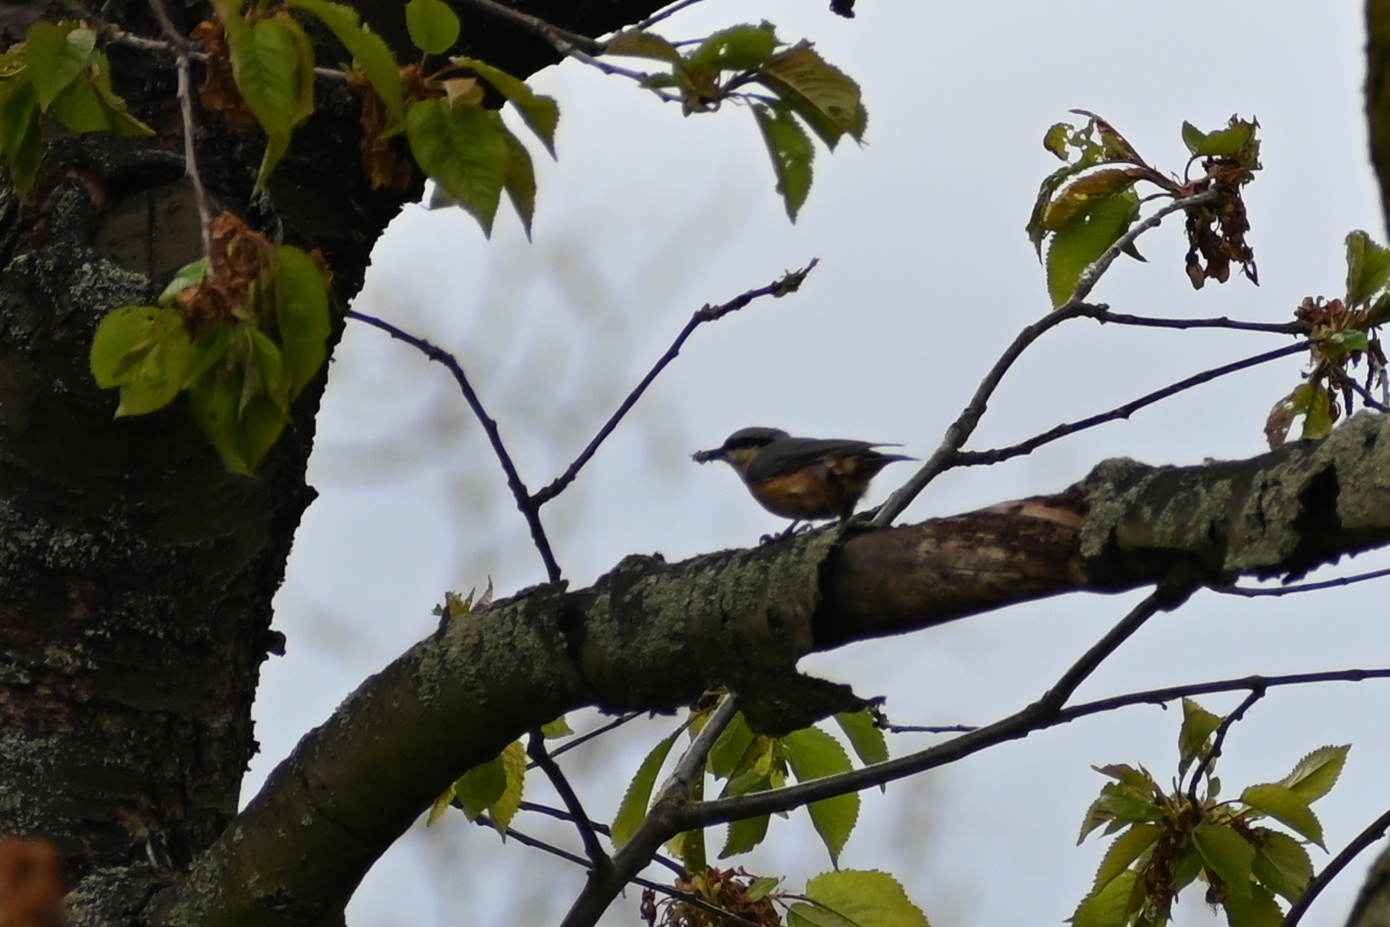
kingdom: Animalia
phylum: Chordata
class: Aves
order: Passeriformes
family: Sittidae
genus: Sitta
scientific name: Sitta europaea
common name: Eurasian nuthatch
